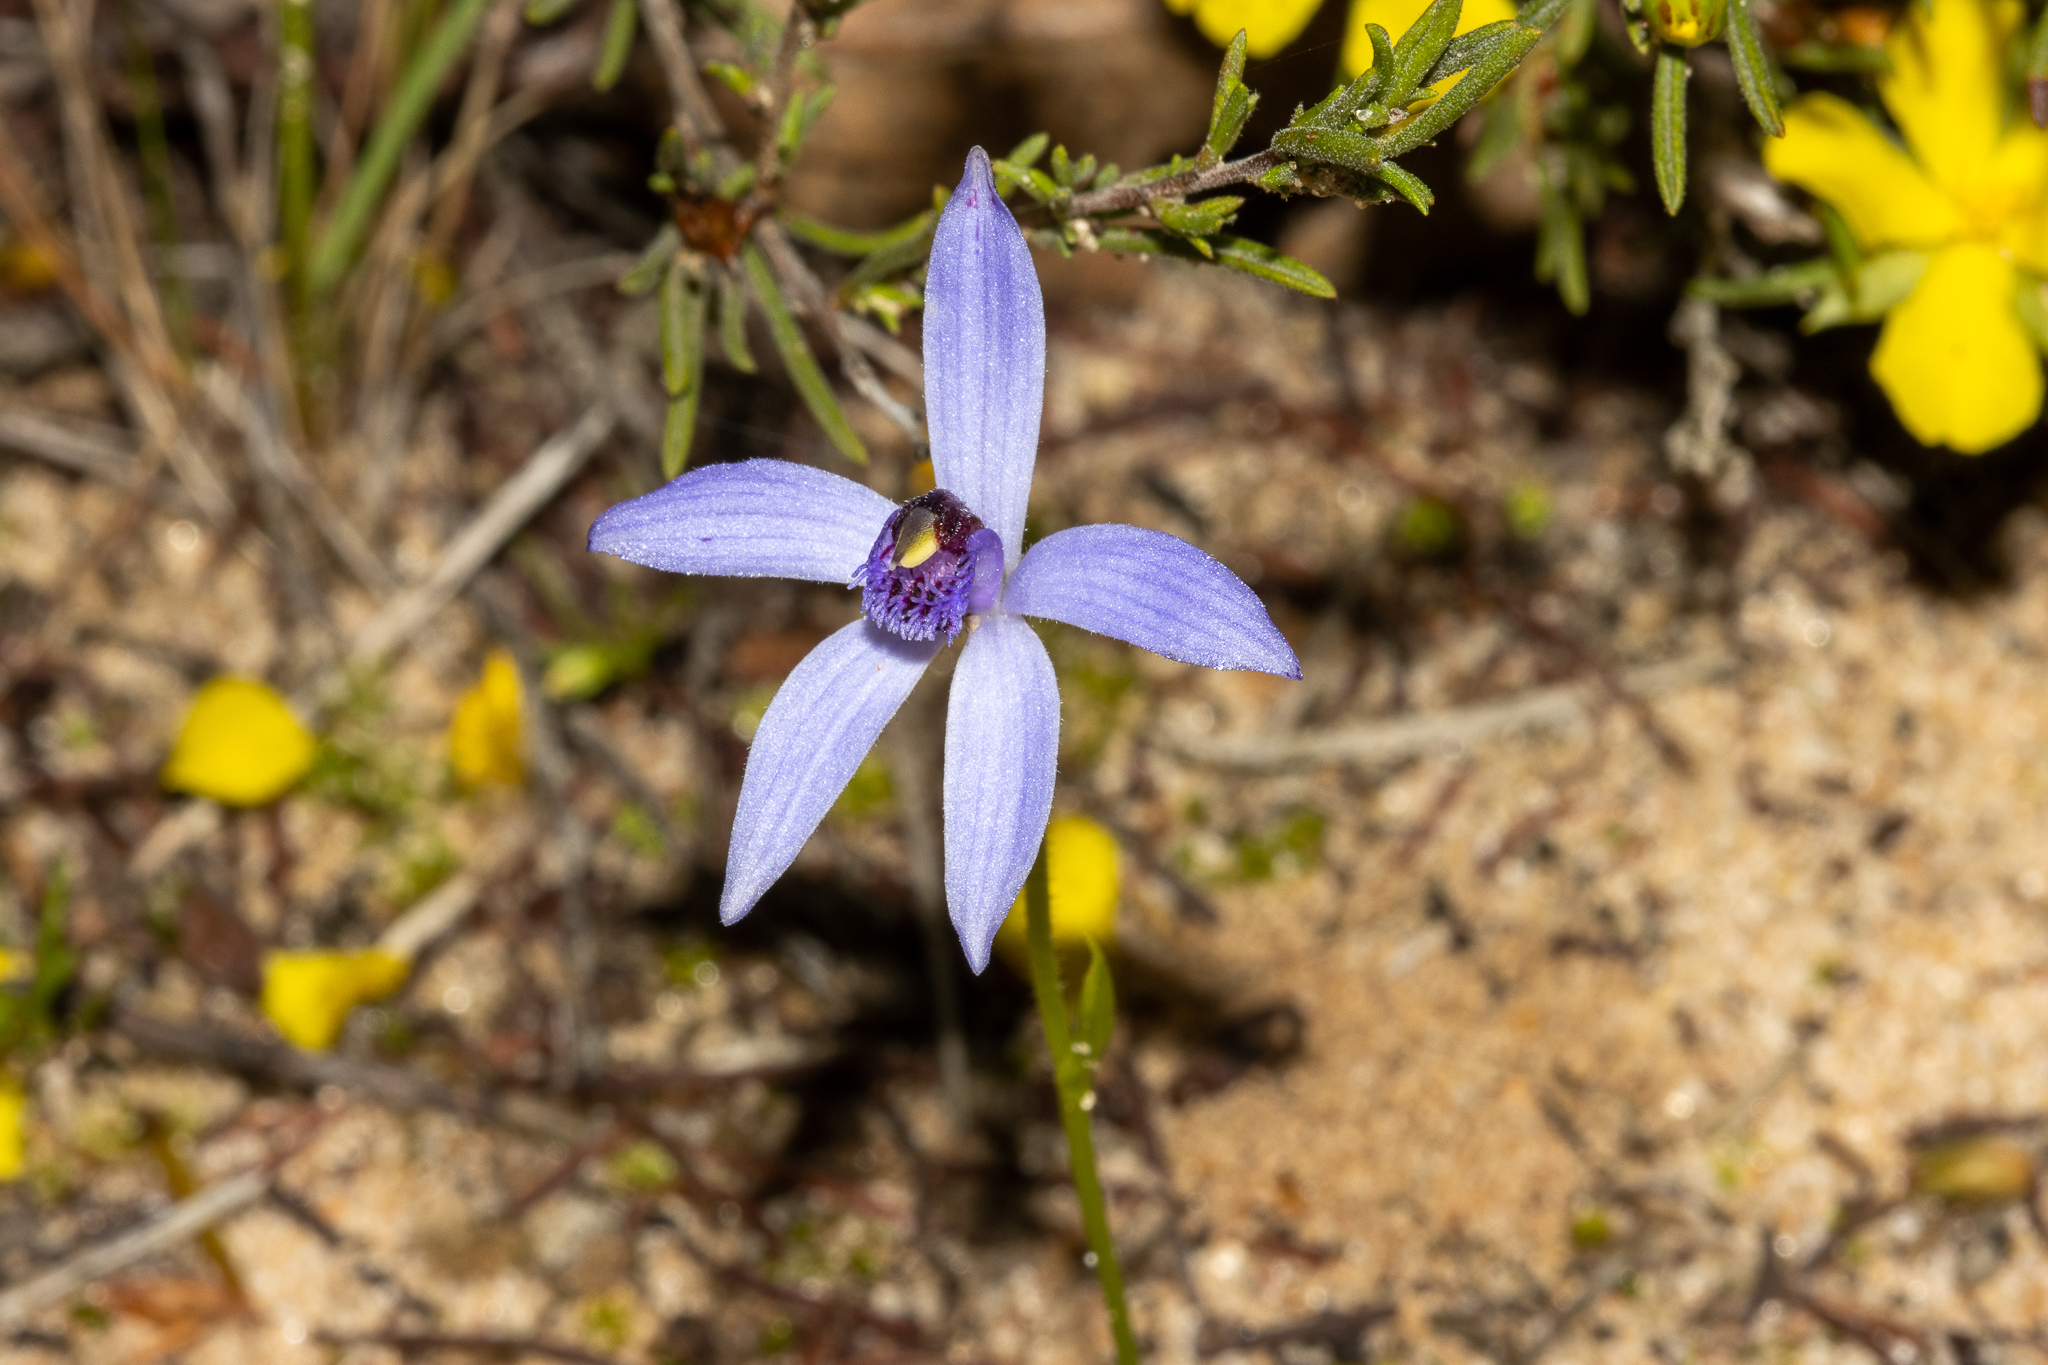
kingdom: Plantae
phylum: Tracheophyta
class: Liliopsida
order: Asparagales
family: Orchidaceae
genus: Pheladenia
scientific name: Pheladenia deformis
